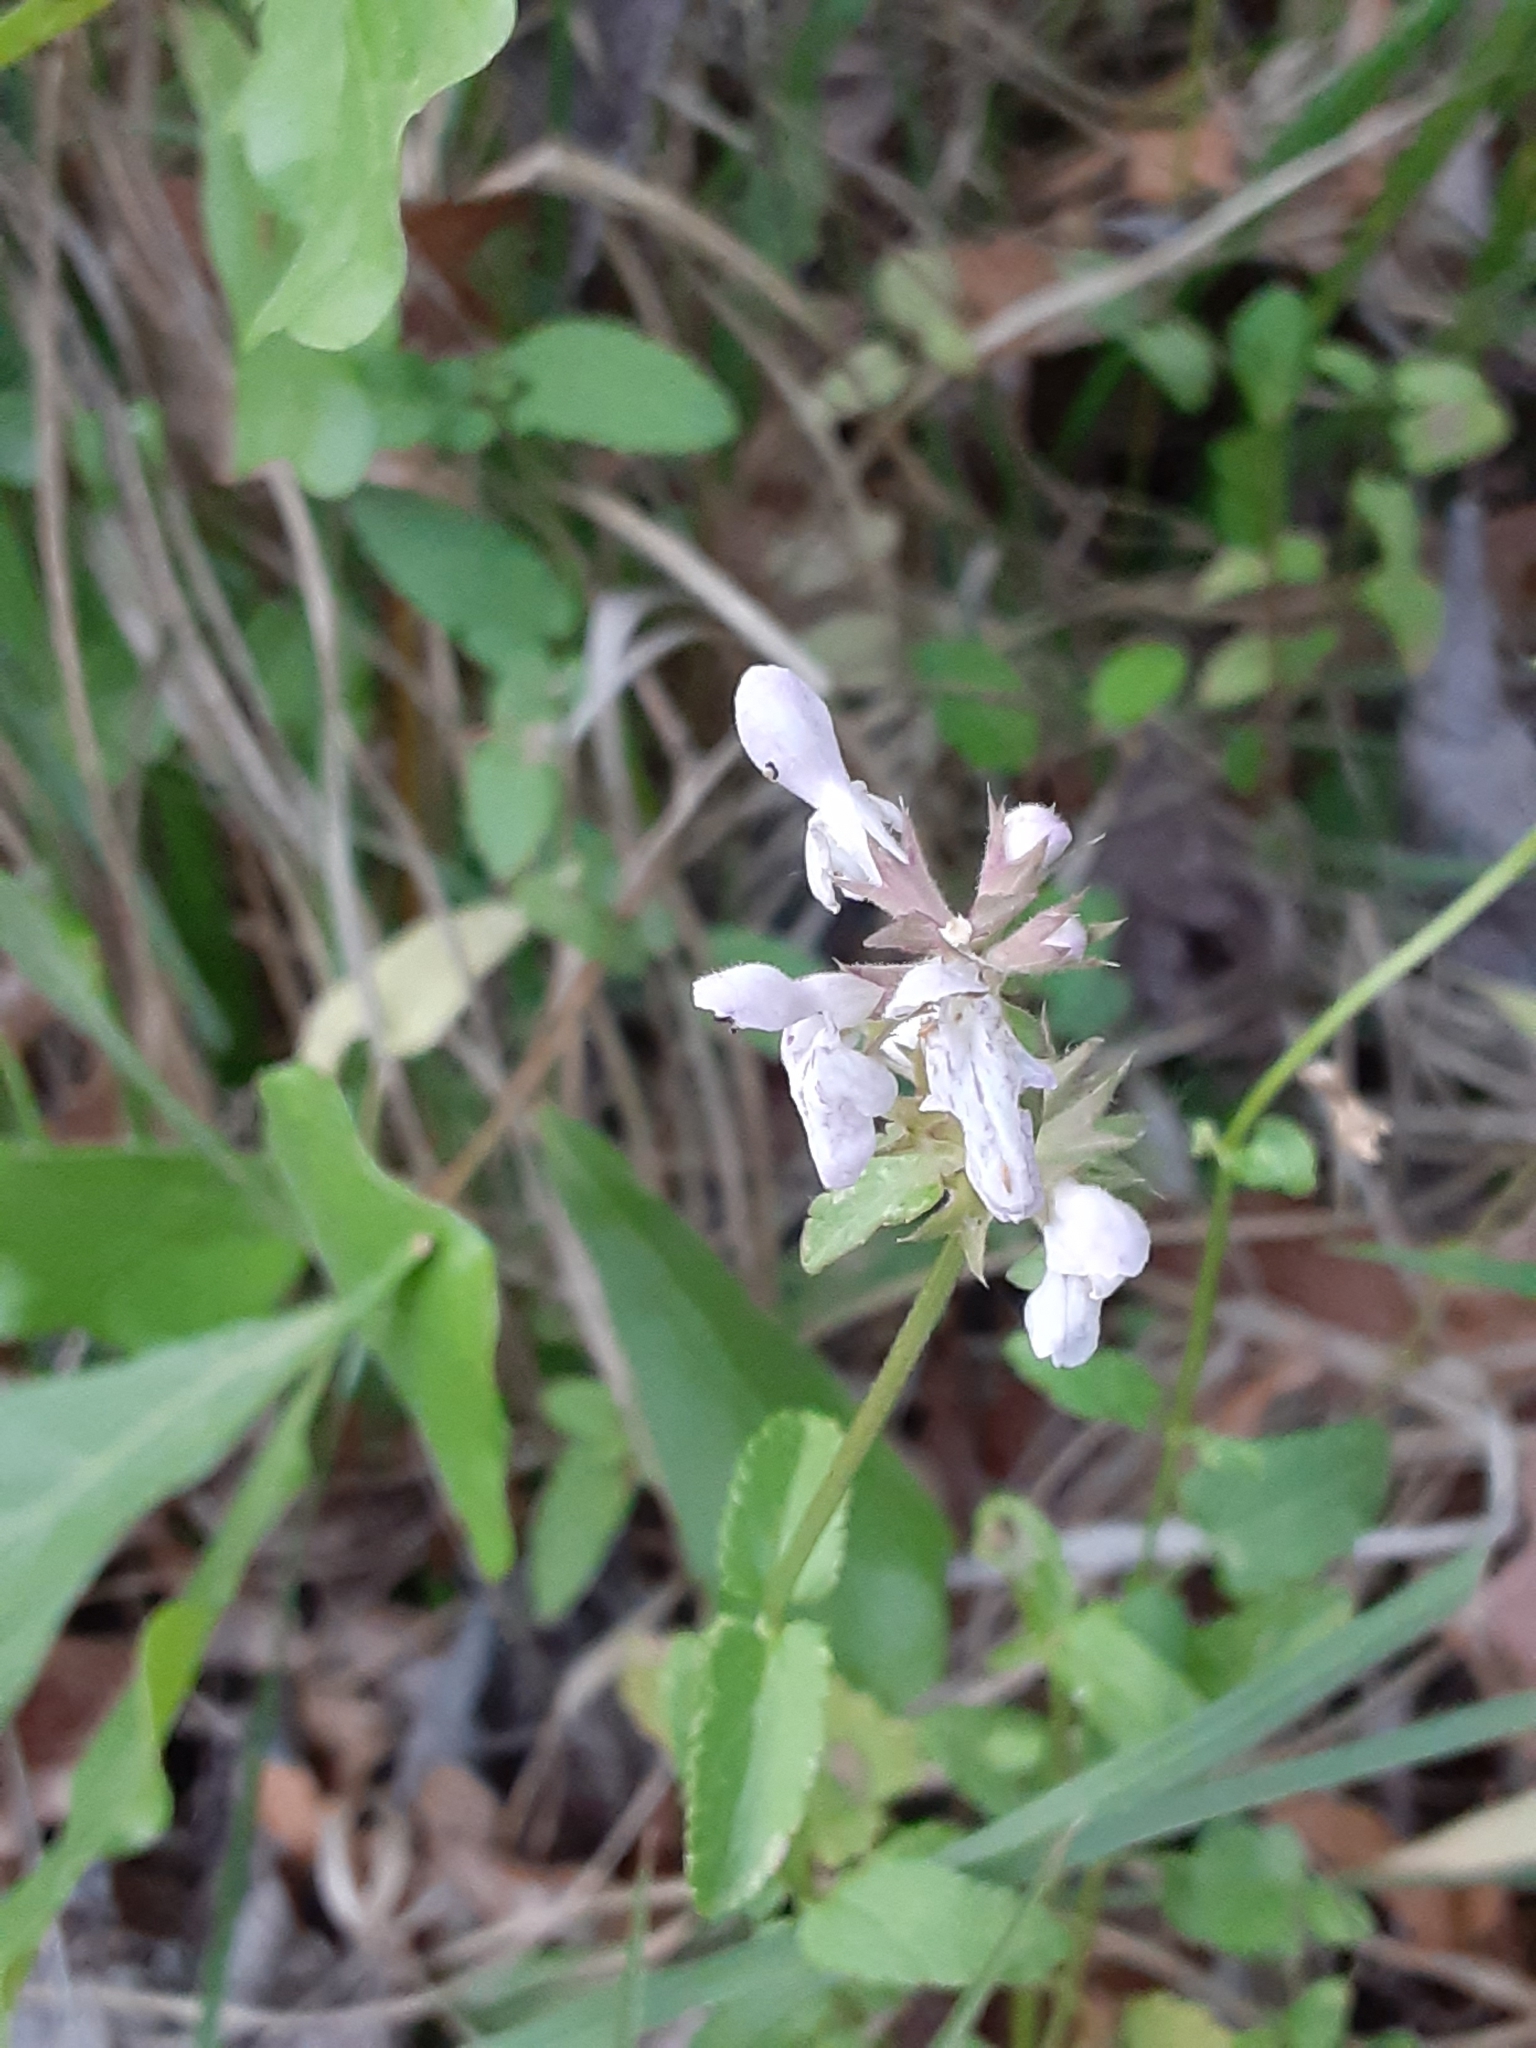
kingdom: Plantae
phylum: Tracheophyta
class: Magnoliopsida
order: Lamiales
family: Lamiaceae
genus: Stachys
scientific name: Stachys floridana
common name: Florida betony
